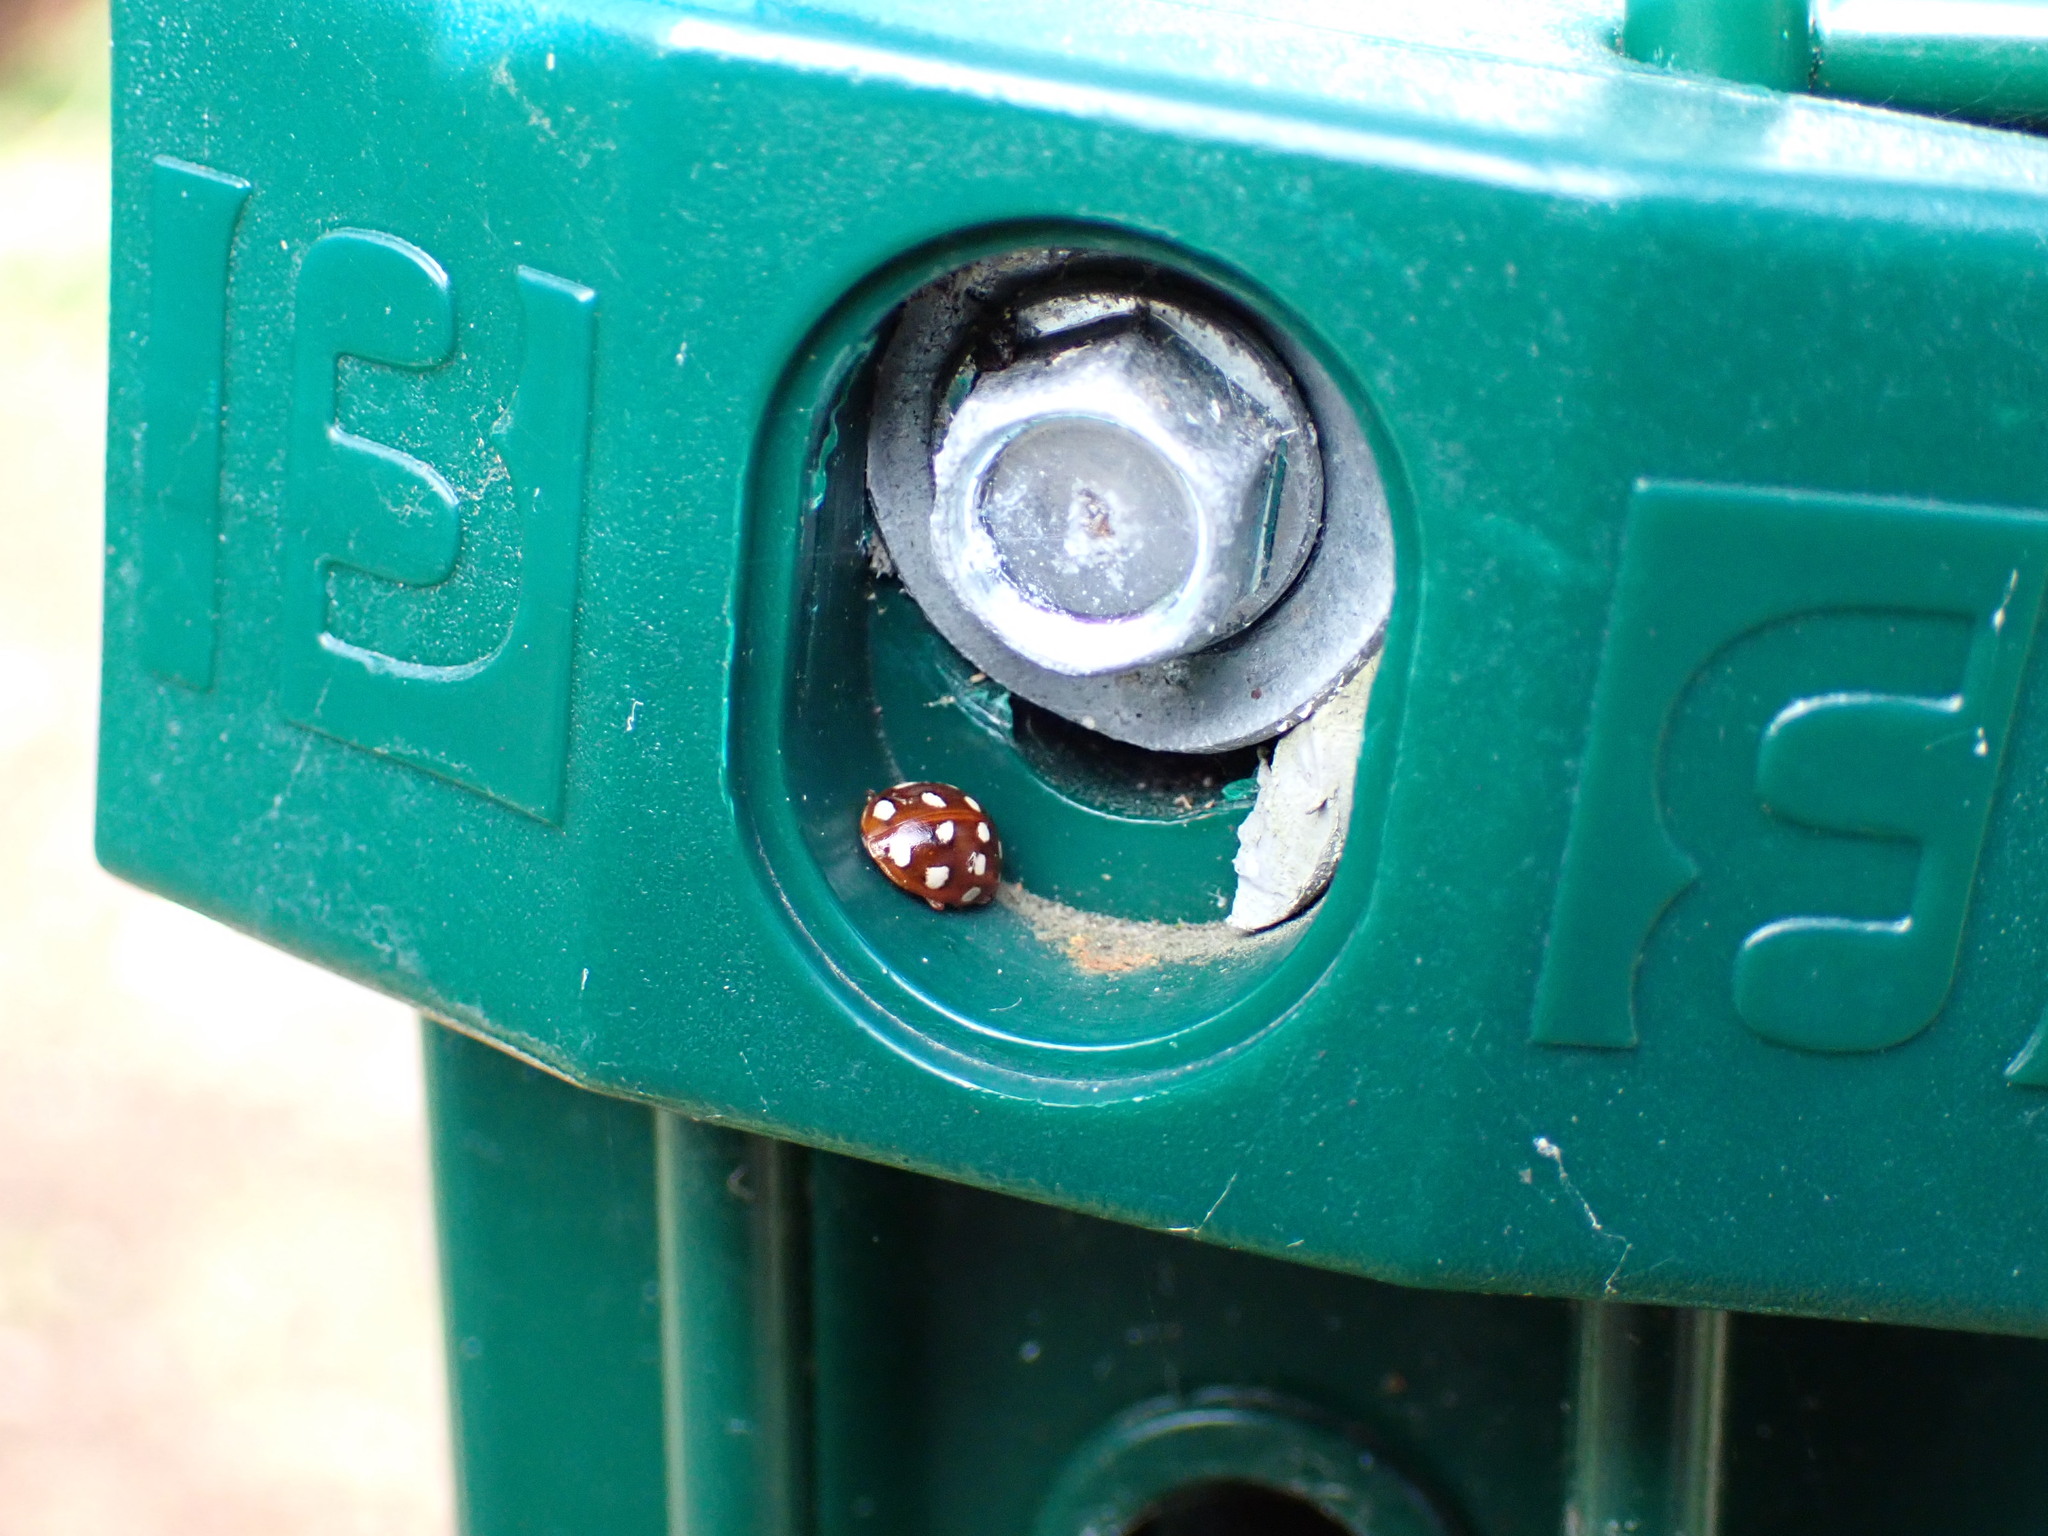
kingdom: Animalia
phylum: Arthropoda
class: Insecta
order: Coleoptera
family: Coccinellidae
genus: Calvia
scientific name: Calvia quatuordecimguttata
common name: Cream-spot ladybird
